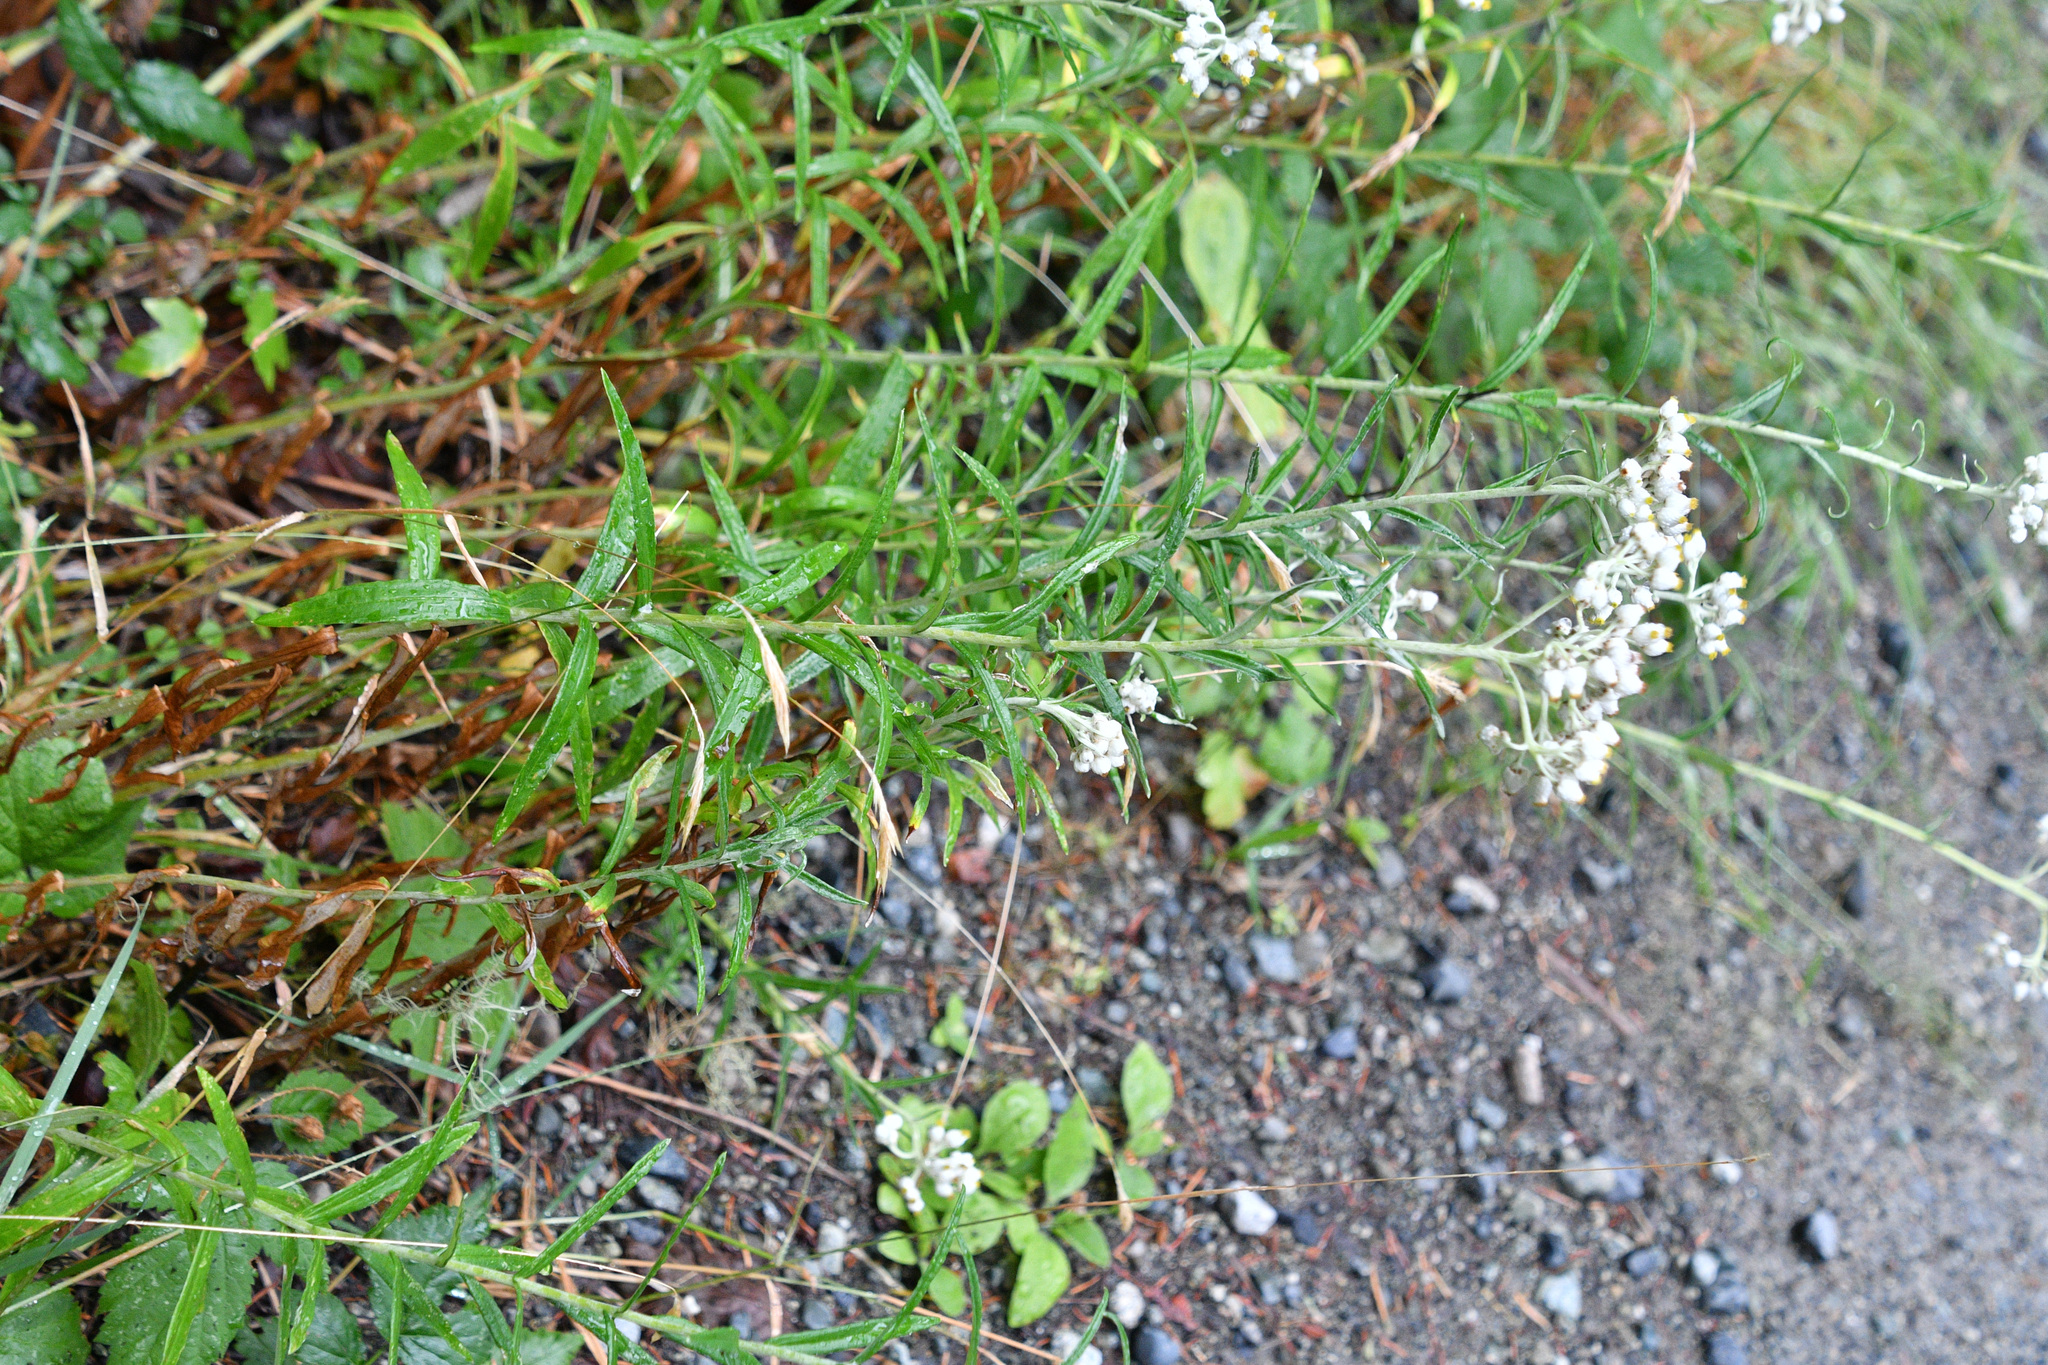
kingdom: Plantae
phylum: Tracheophyta
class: Magnoliopsida
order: Asterales
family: Asteraceae
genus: Anaphalis
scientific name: Anaphalis margaritacea
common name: Pearly everlasting
